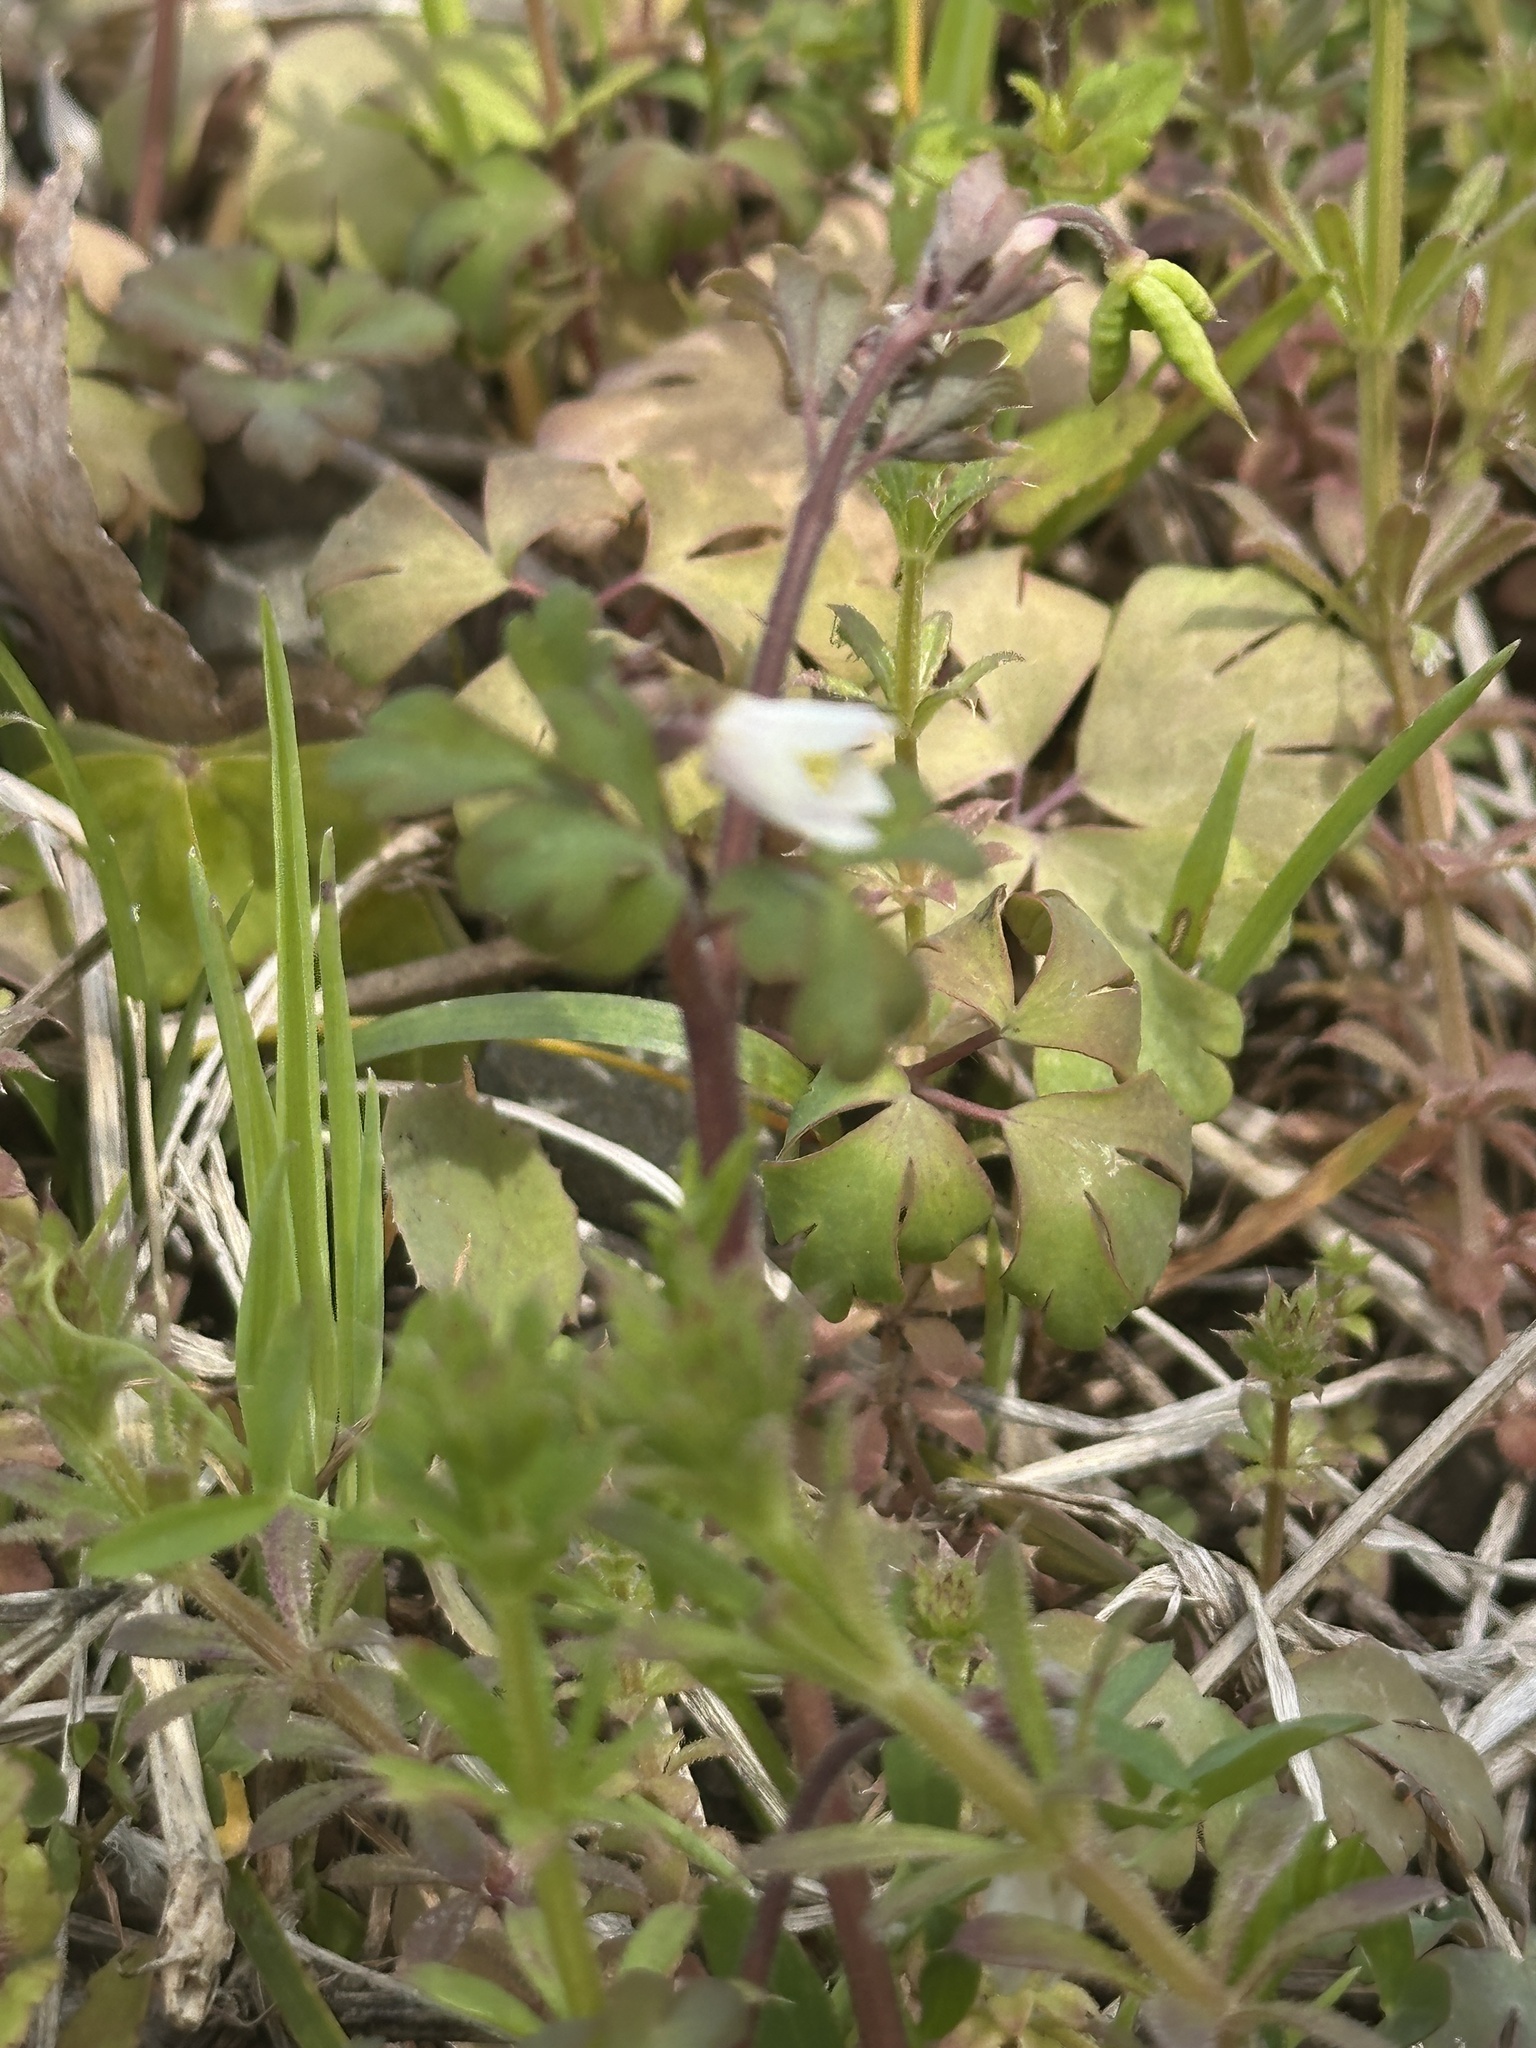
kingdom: Plantae
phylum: Tracheophyta
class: Magnoliopsida
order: Ranunculales
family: Ranunculaceae
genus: Semiaquilegia
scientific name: Semiaquilegia adoxoides
